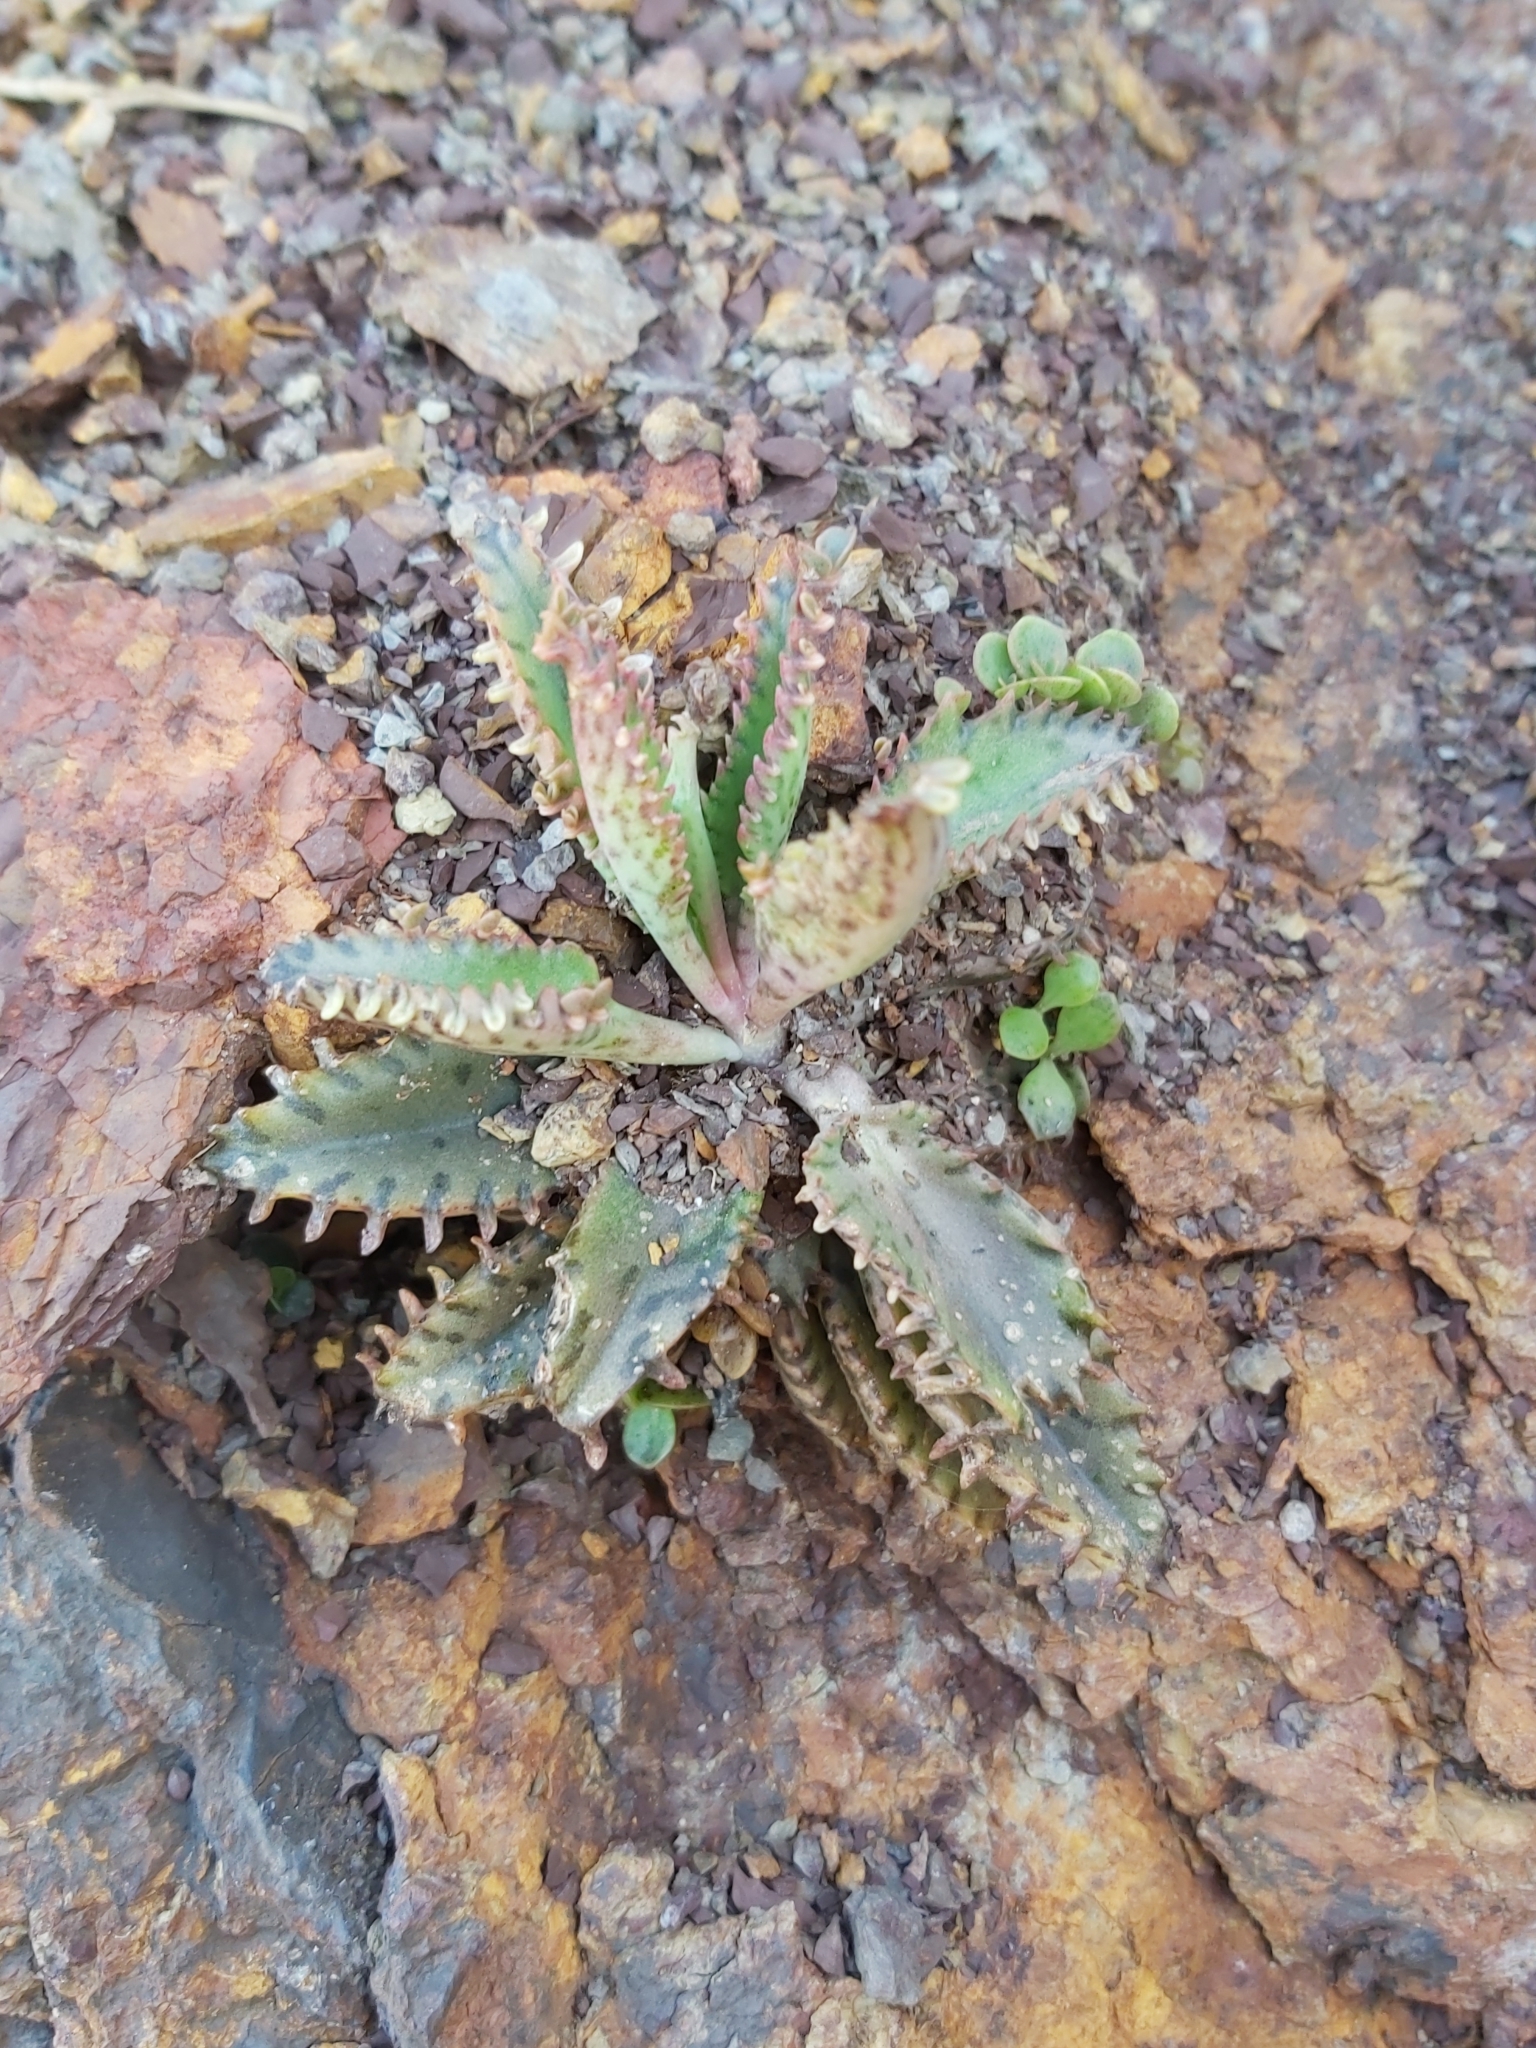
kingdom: Plantae
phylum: Tracheophyta
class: Magnoliopsida
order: Saxifragales
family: Crassulaceae
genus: Kalanchoe
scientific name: Kalanchoe houghtonii
